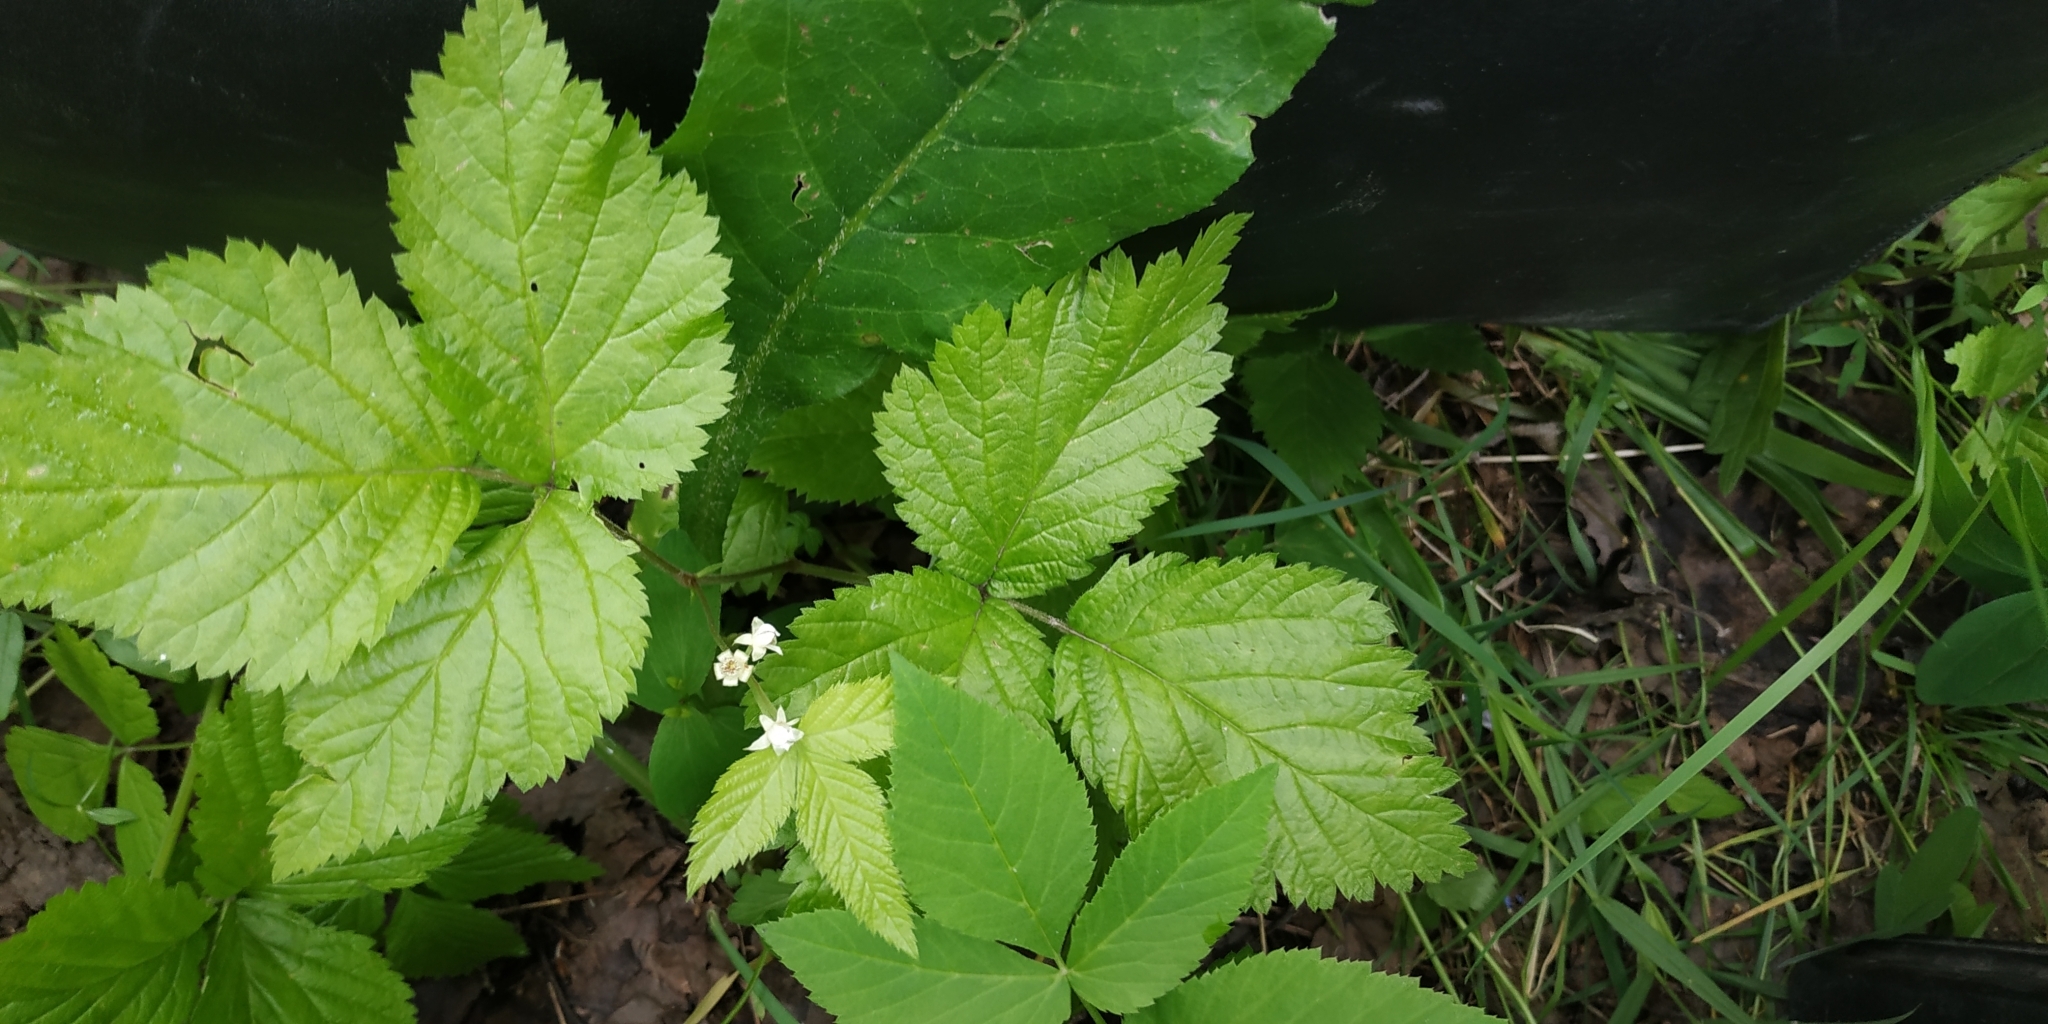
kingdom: Plantae
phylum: Tracheophyta
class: Magnoliopsida
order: Rosales
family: Rosaceae
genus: Rubus
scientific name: Rubus saxatilis
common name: Stone bramble
